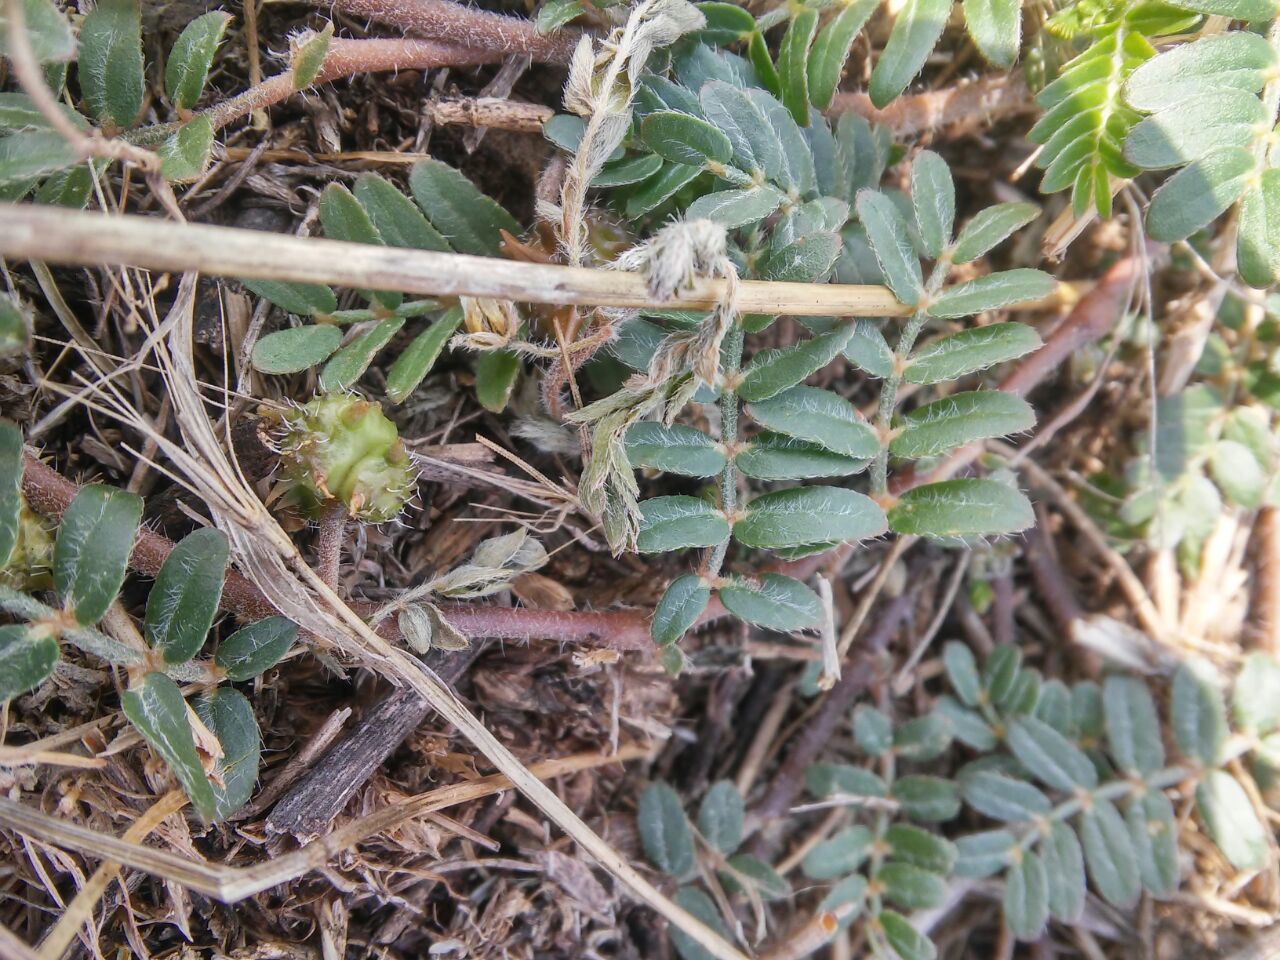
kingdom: Plantae
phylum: Tracheophyta
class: Magnoliopsida
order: Zygophyllales
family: Zygophyllaceae
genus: Tribulus
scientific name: Tribulus terrestris
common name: Puncturevine
